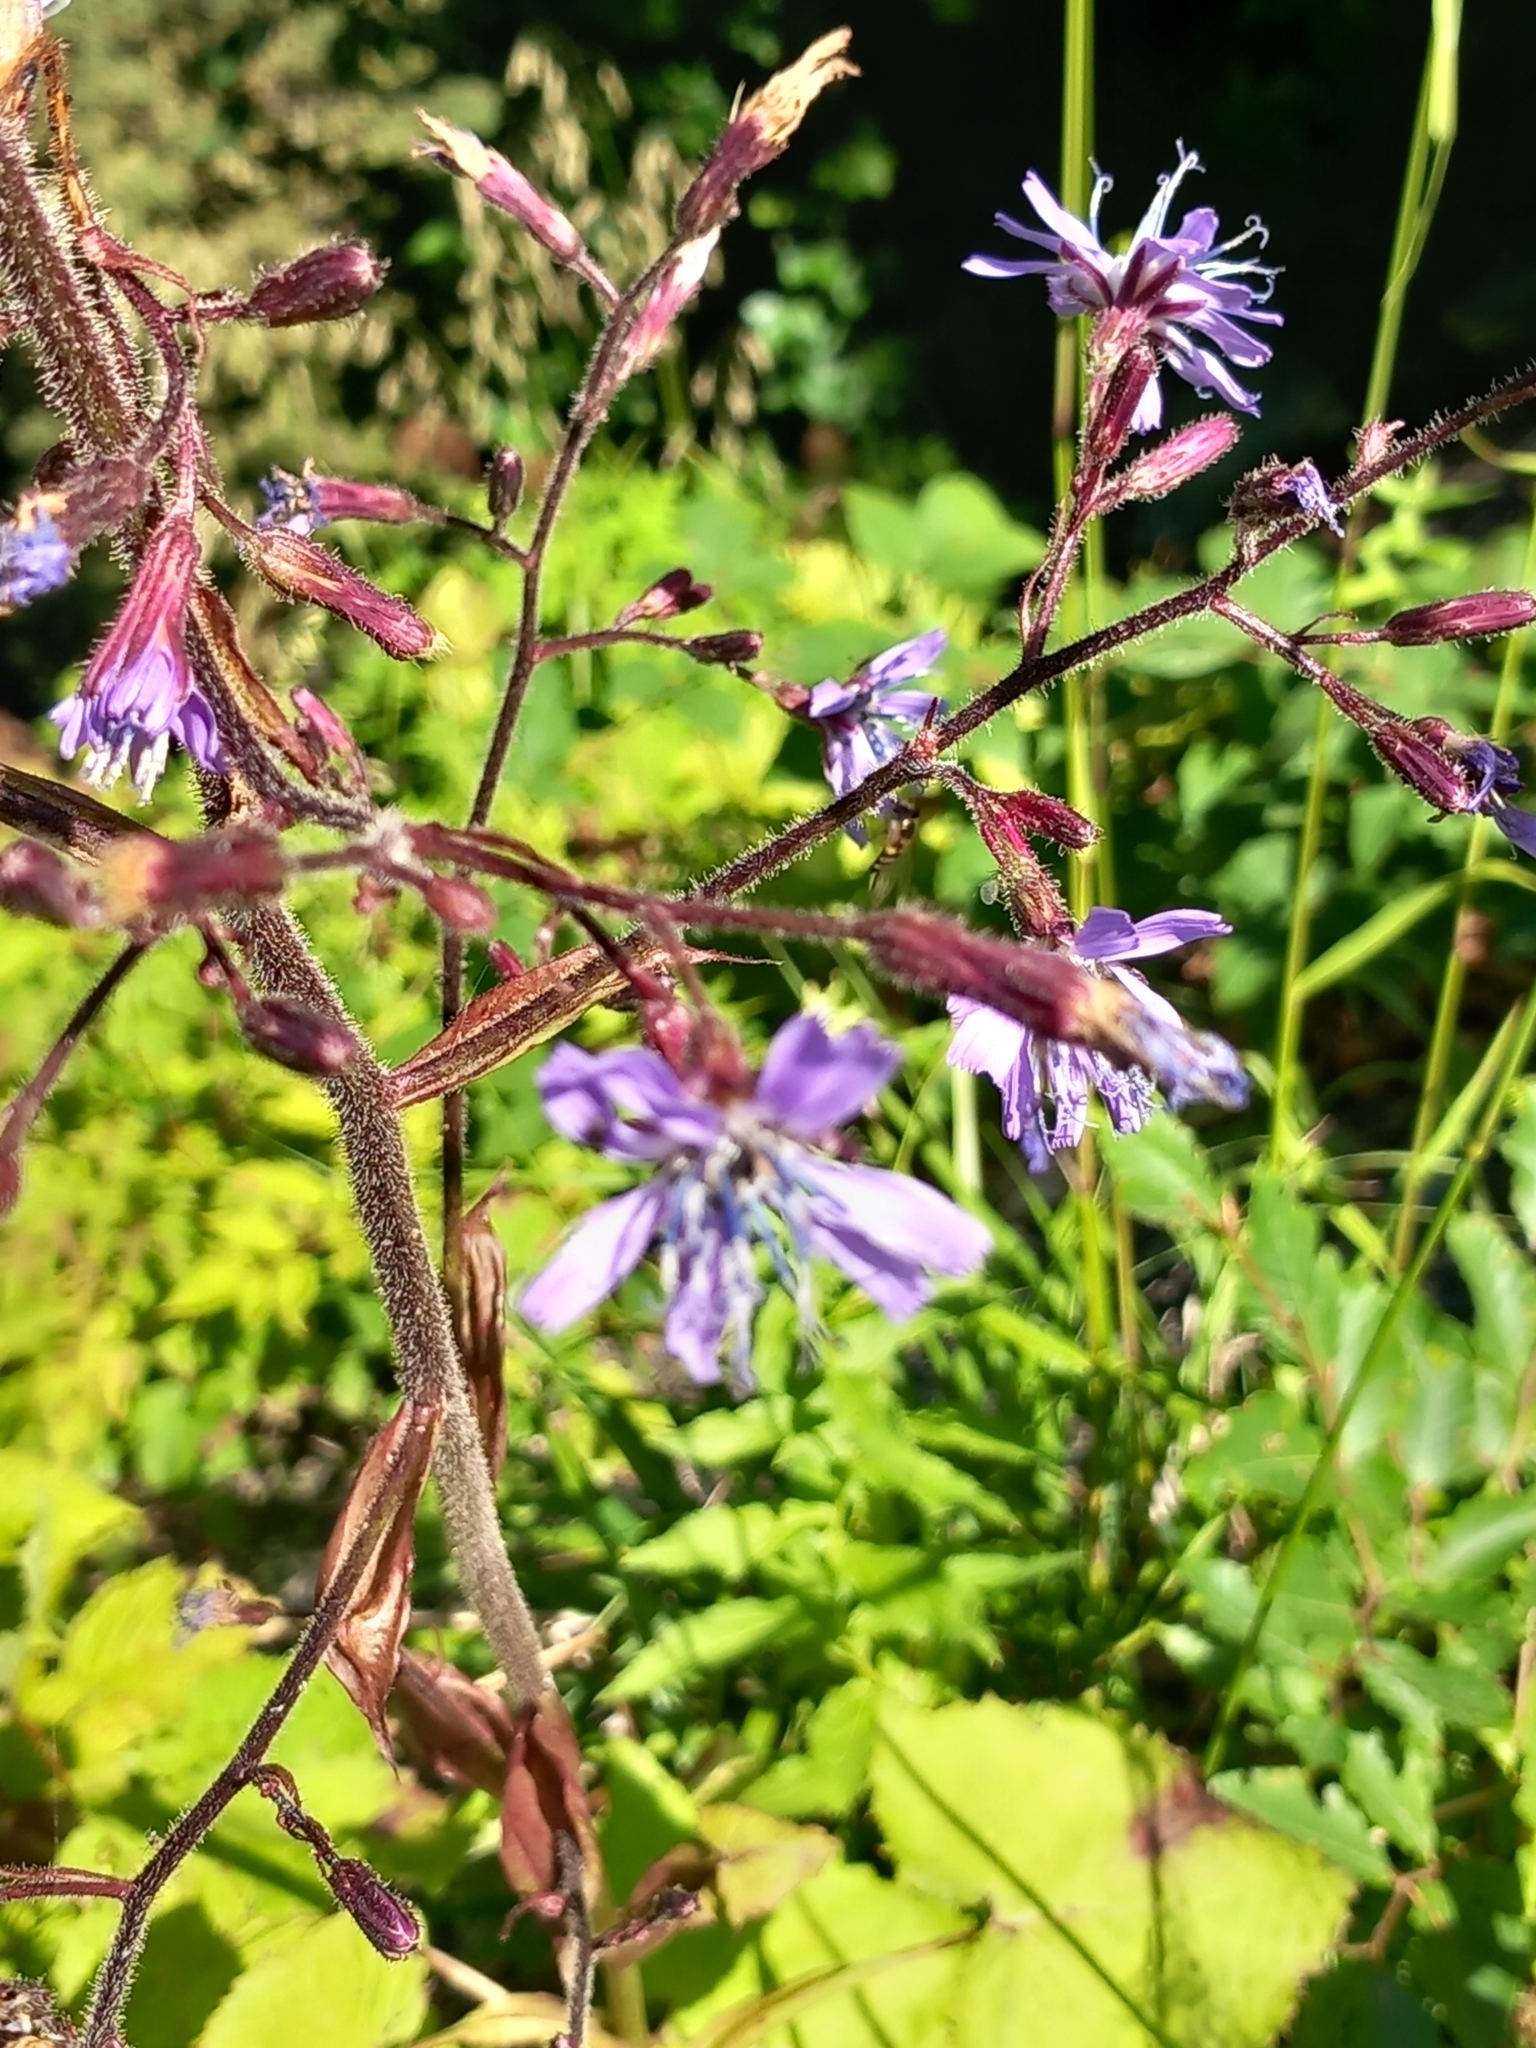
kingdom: Plantae
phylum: Tracheophyta
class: Magnoliopsida
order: Asterales
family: Asteraceae
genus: Cicerbita
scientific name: Cicerbita petiolata
